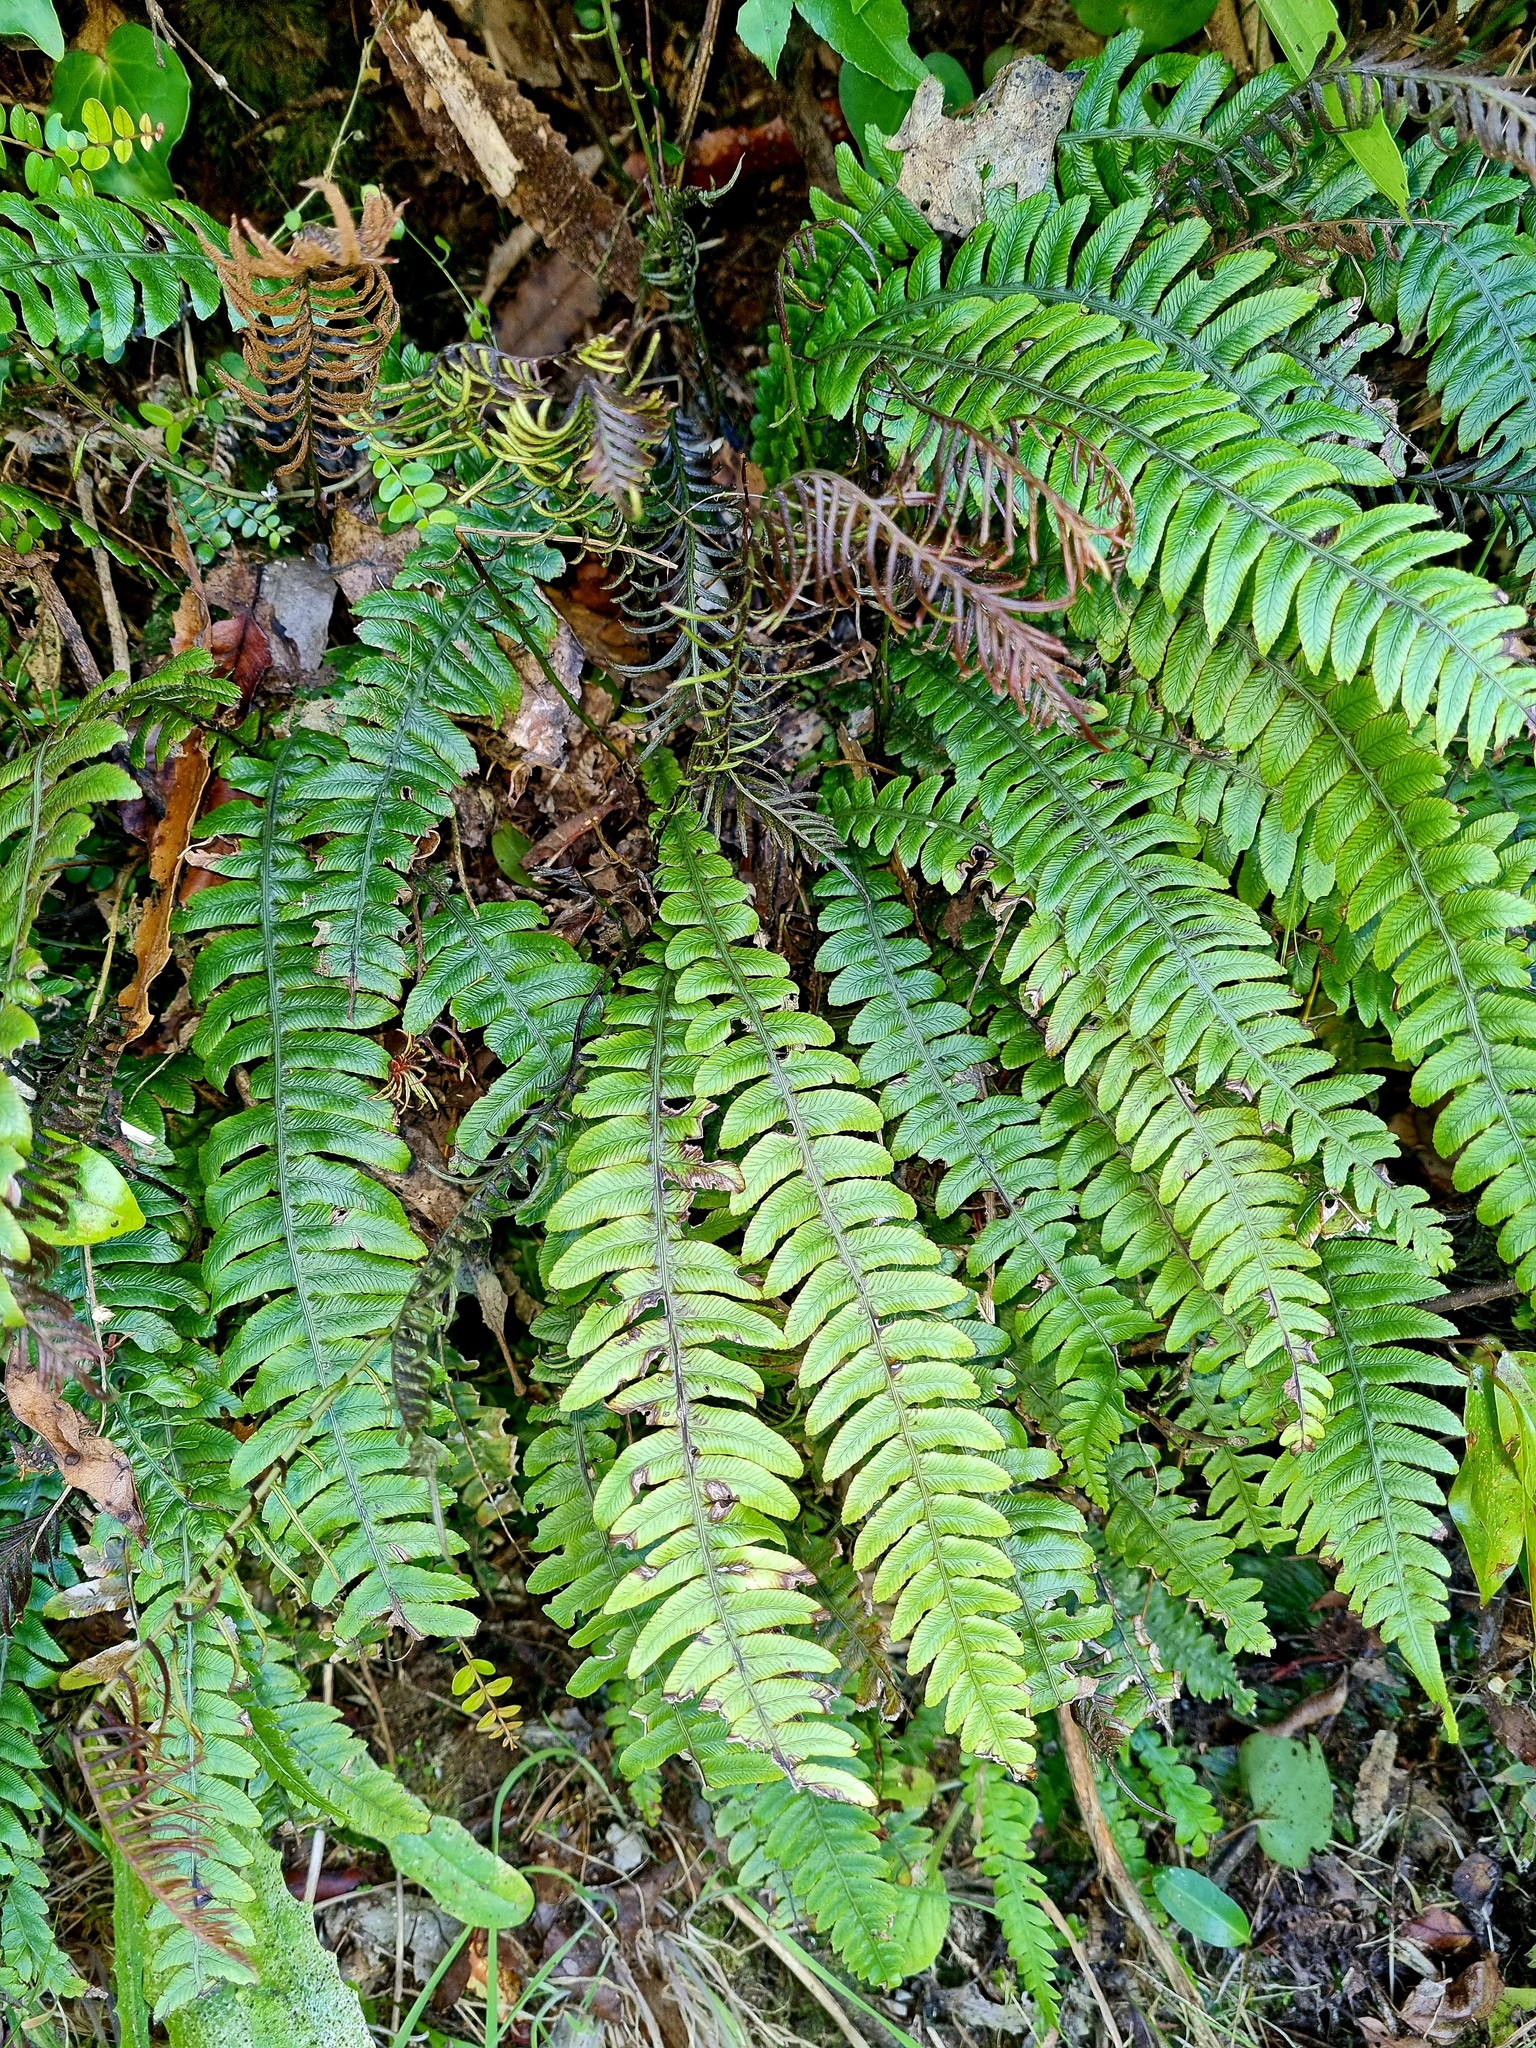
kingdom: Plantae
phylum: Tracheophyta
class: Polypodiopsida
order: Polypodiales
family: Blechnaceae
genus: Austroblechnum
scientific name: Austroblechnum lanceolatum
